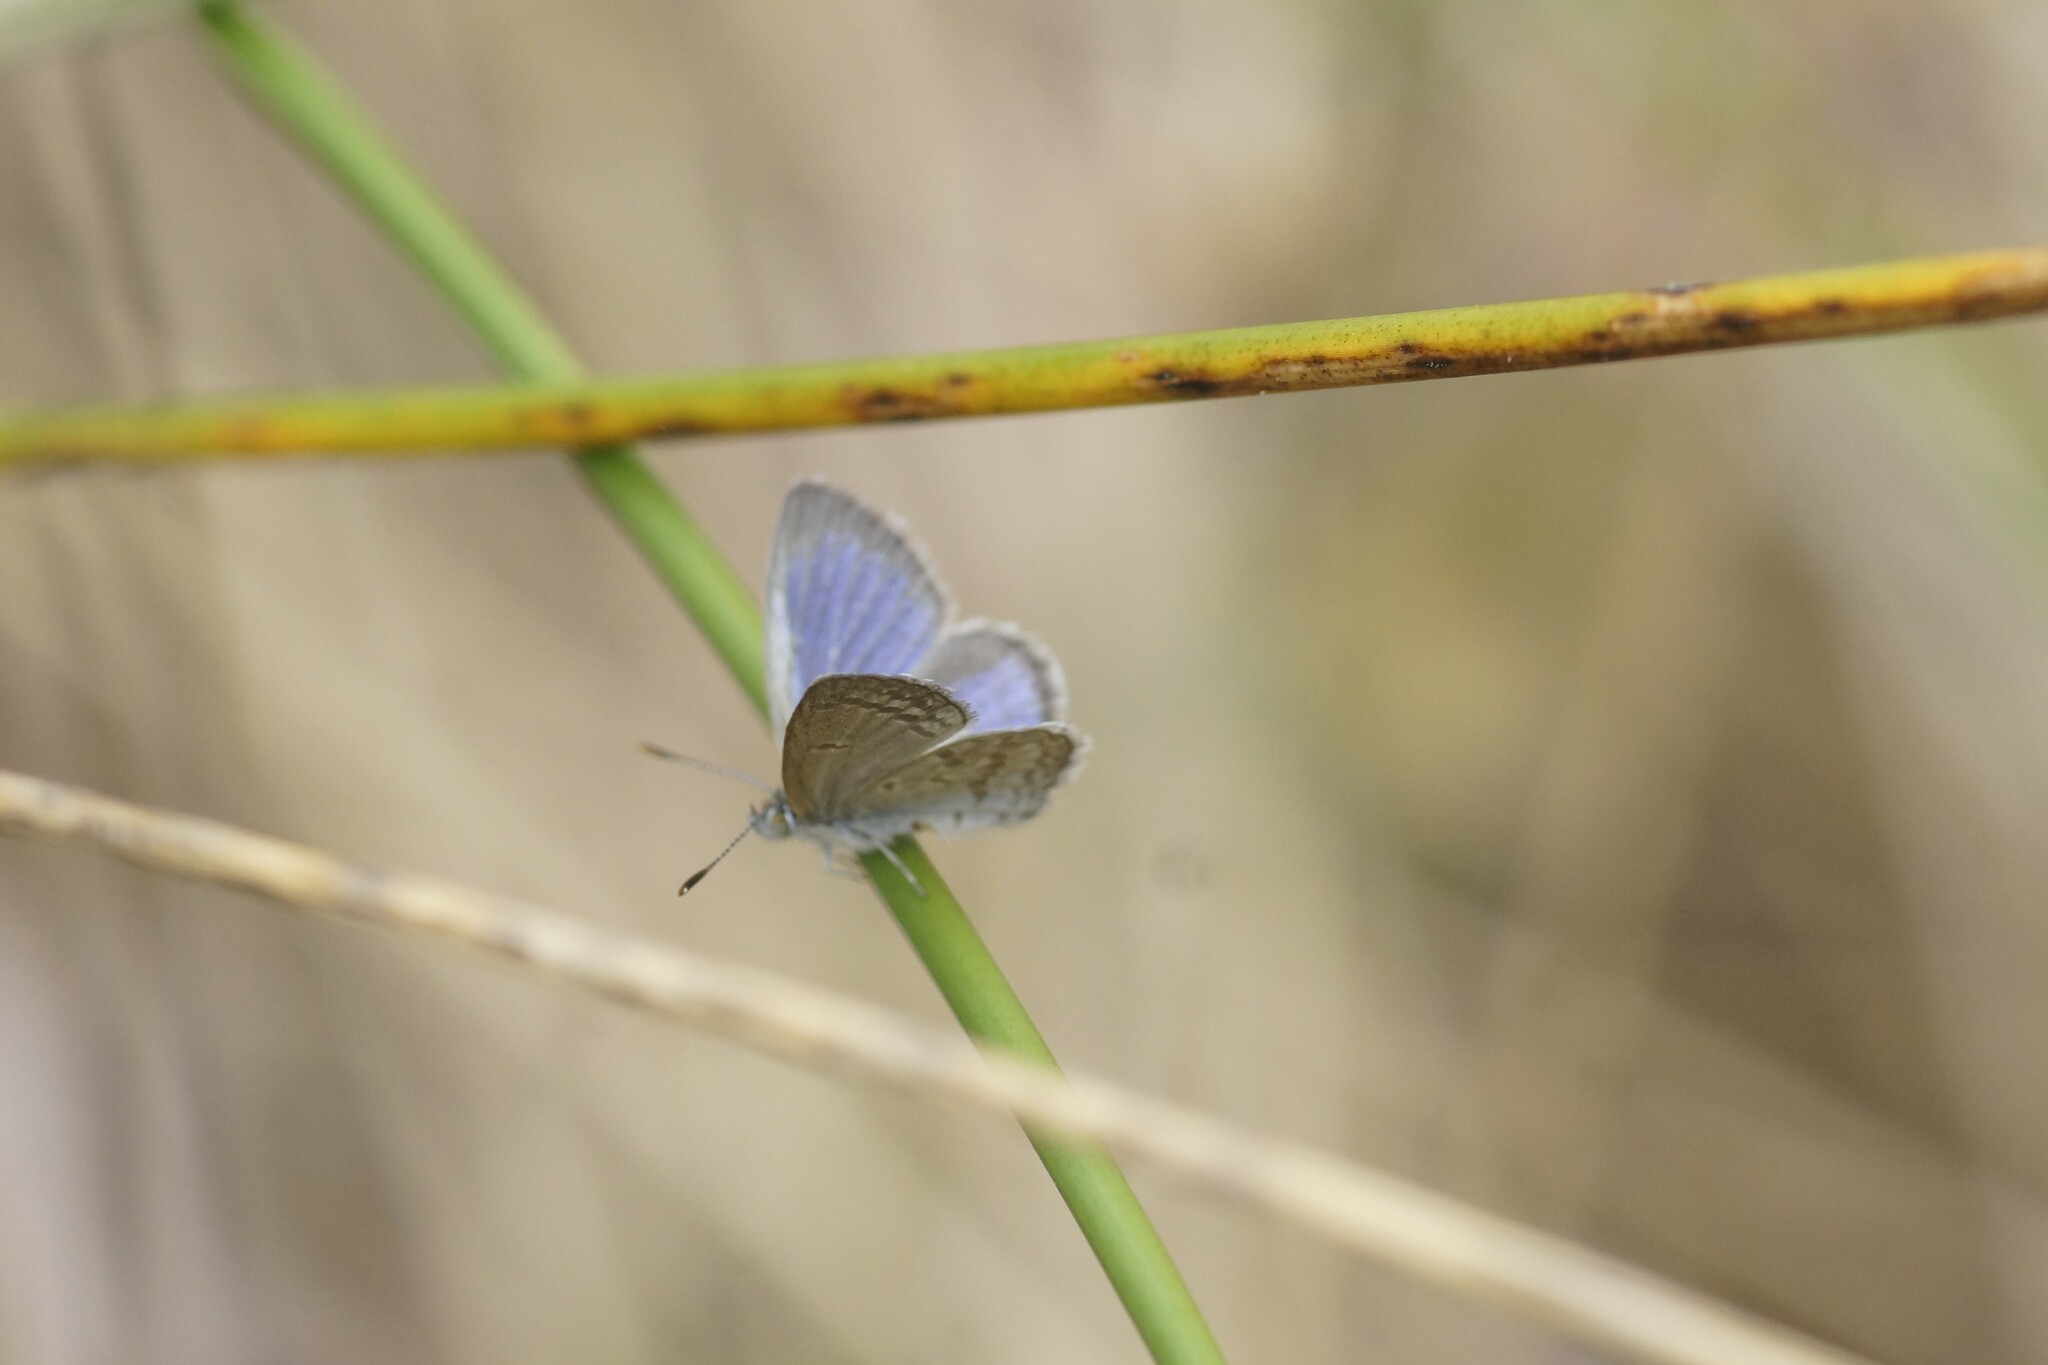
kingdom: Animalia
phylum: Arthropoda
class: Insecta
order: Lepidoptera
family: Lycaenidae
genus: Zizina
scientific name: Zizina otis
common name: Lesser grass blue
